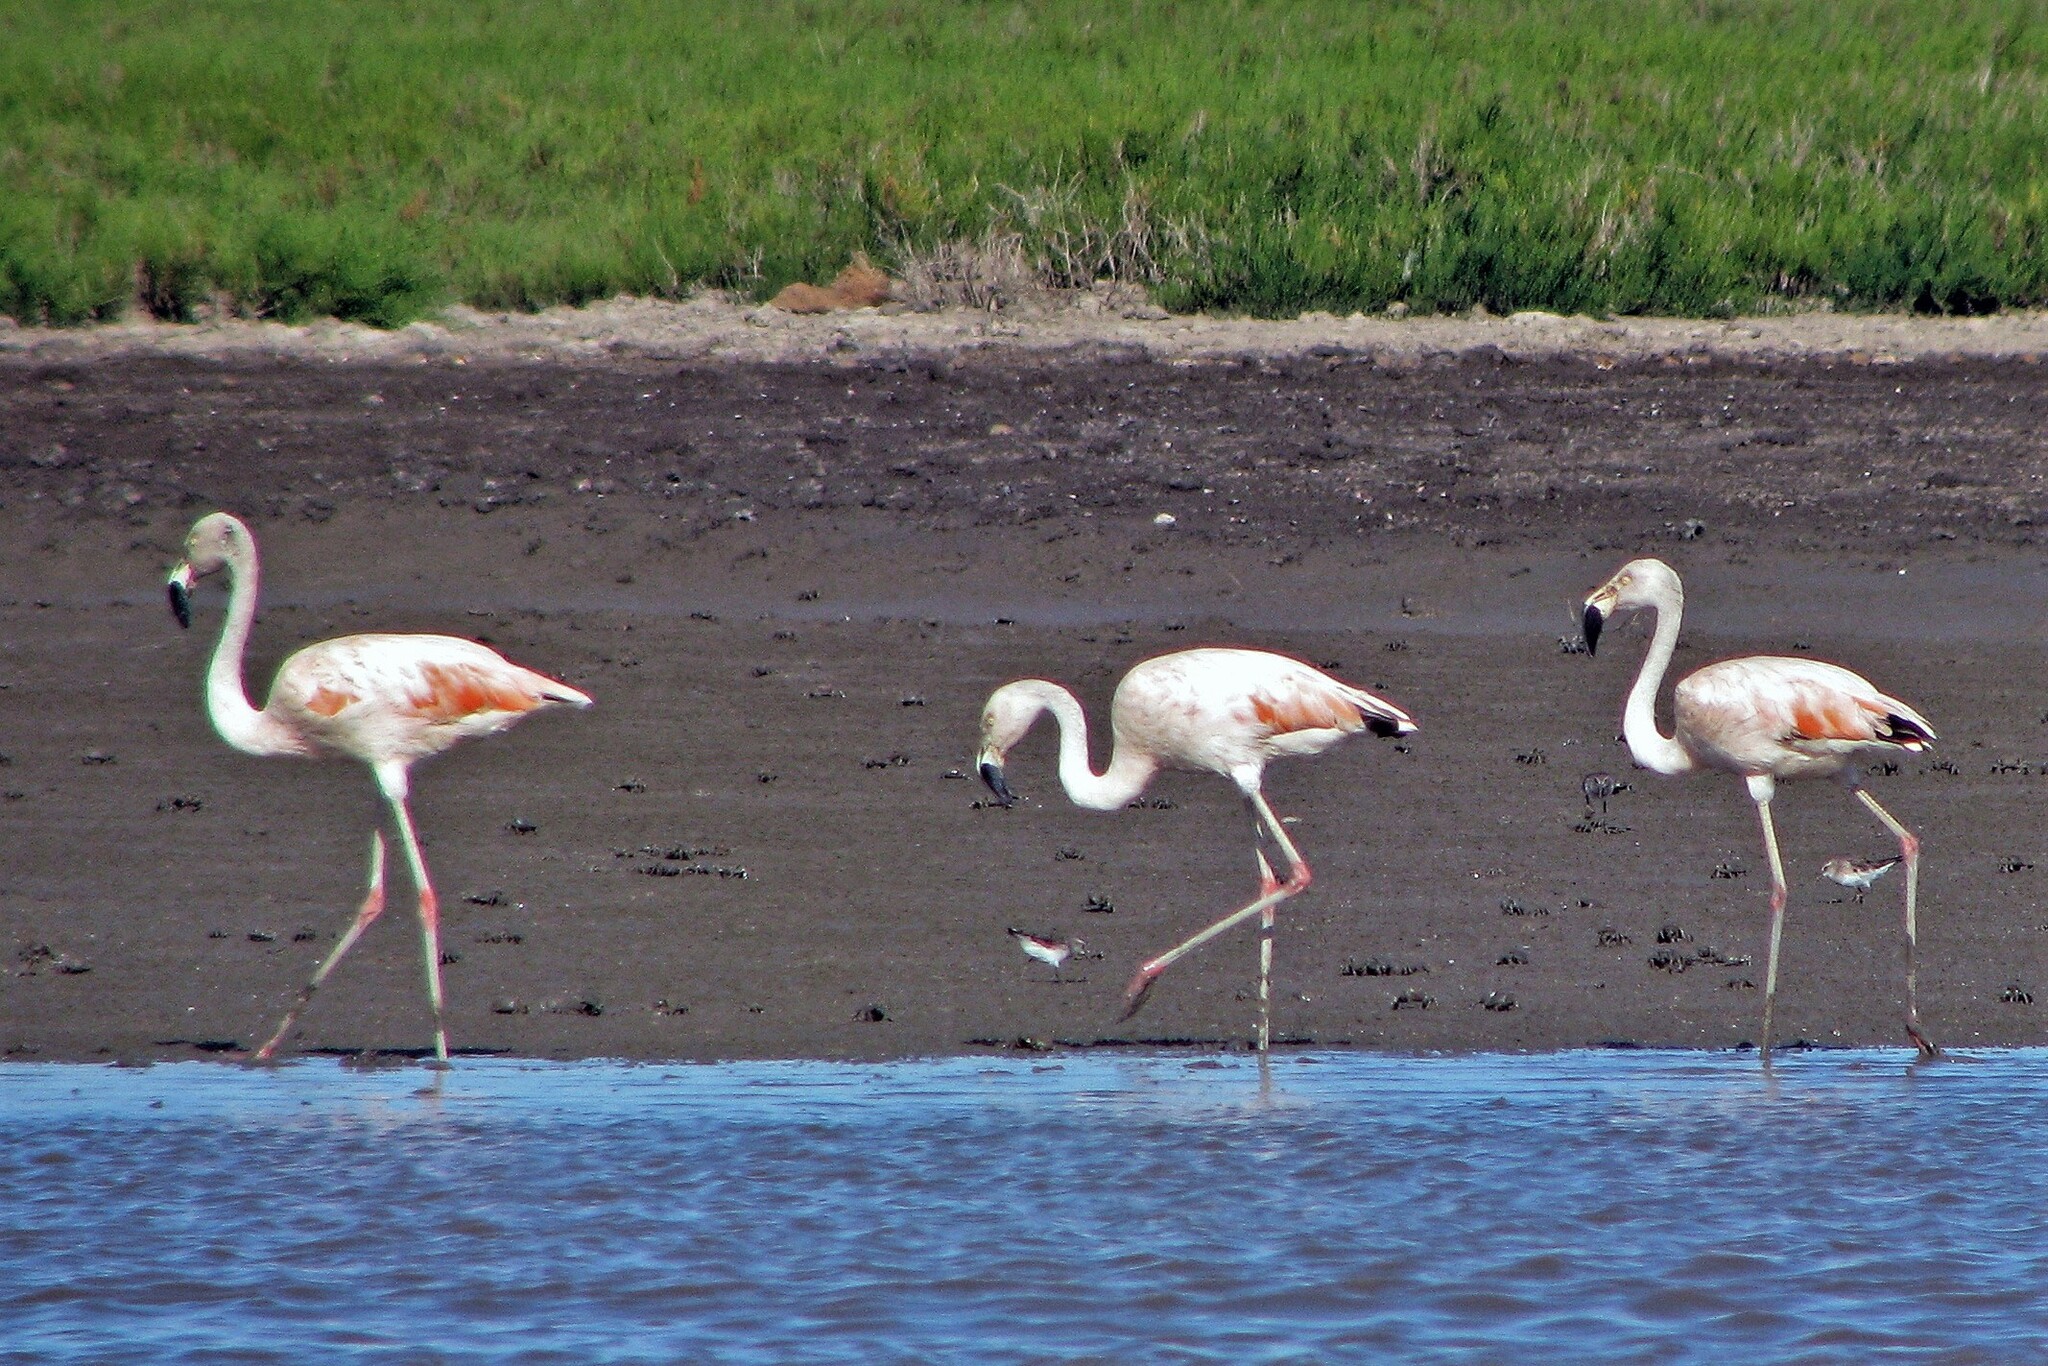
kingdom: Animalia
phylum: Chordata
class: Aves
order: Phoenicopteriformes
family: Phoenicopteridae
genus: Phoenicopterus
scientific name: Phoenicopterus chilensis
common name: Chilean flamingo
